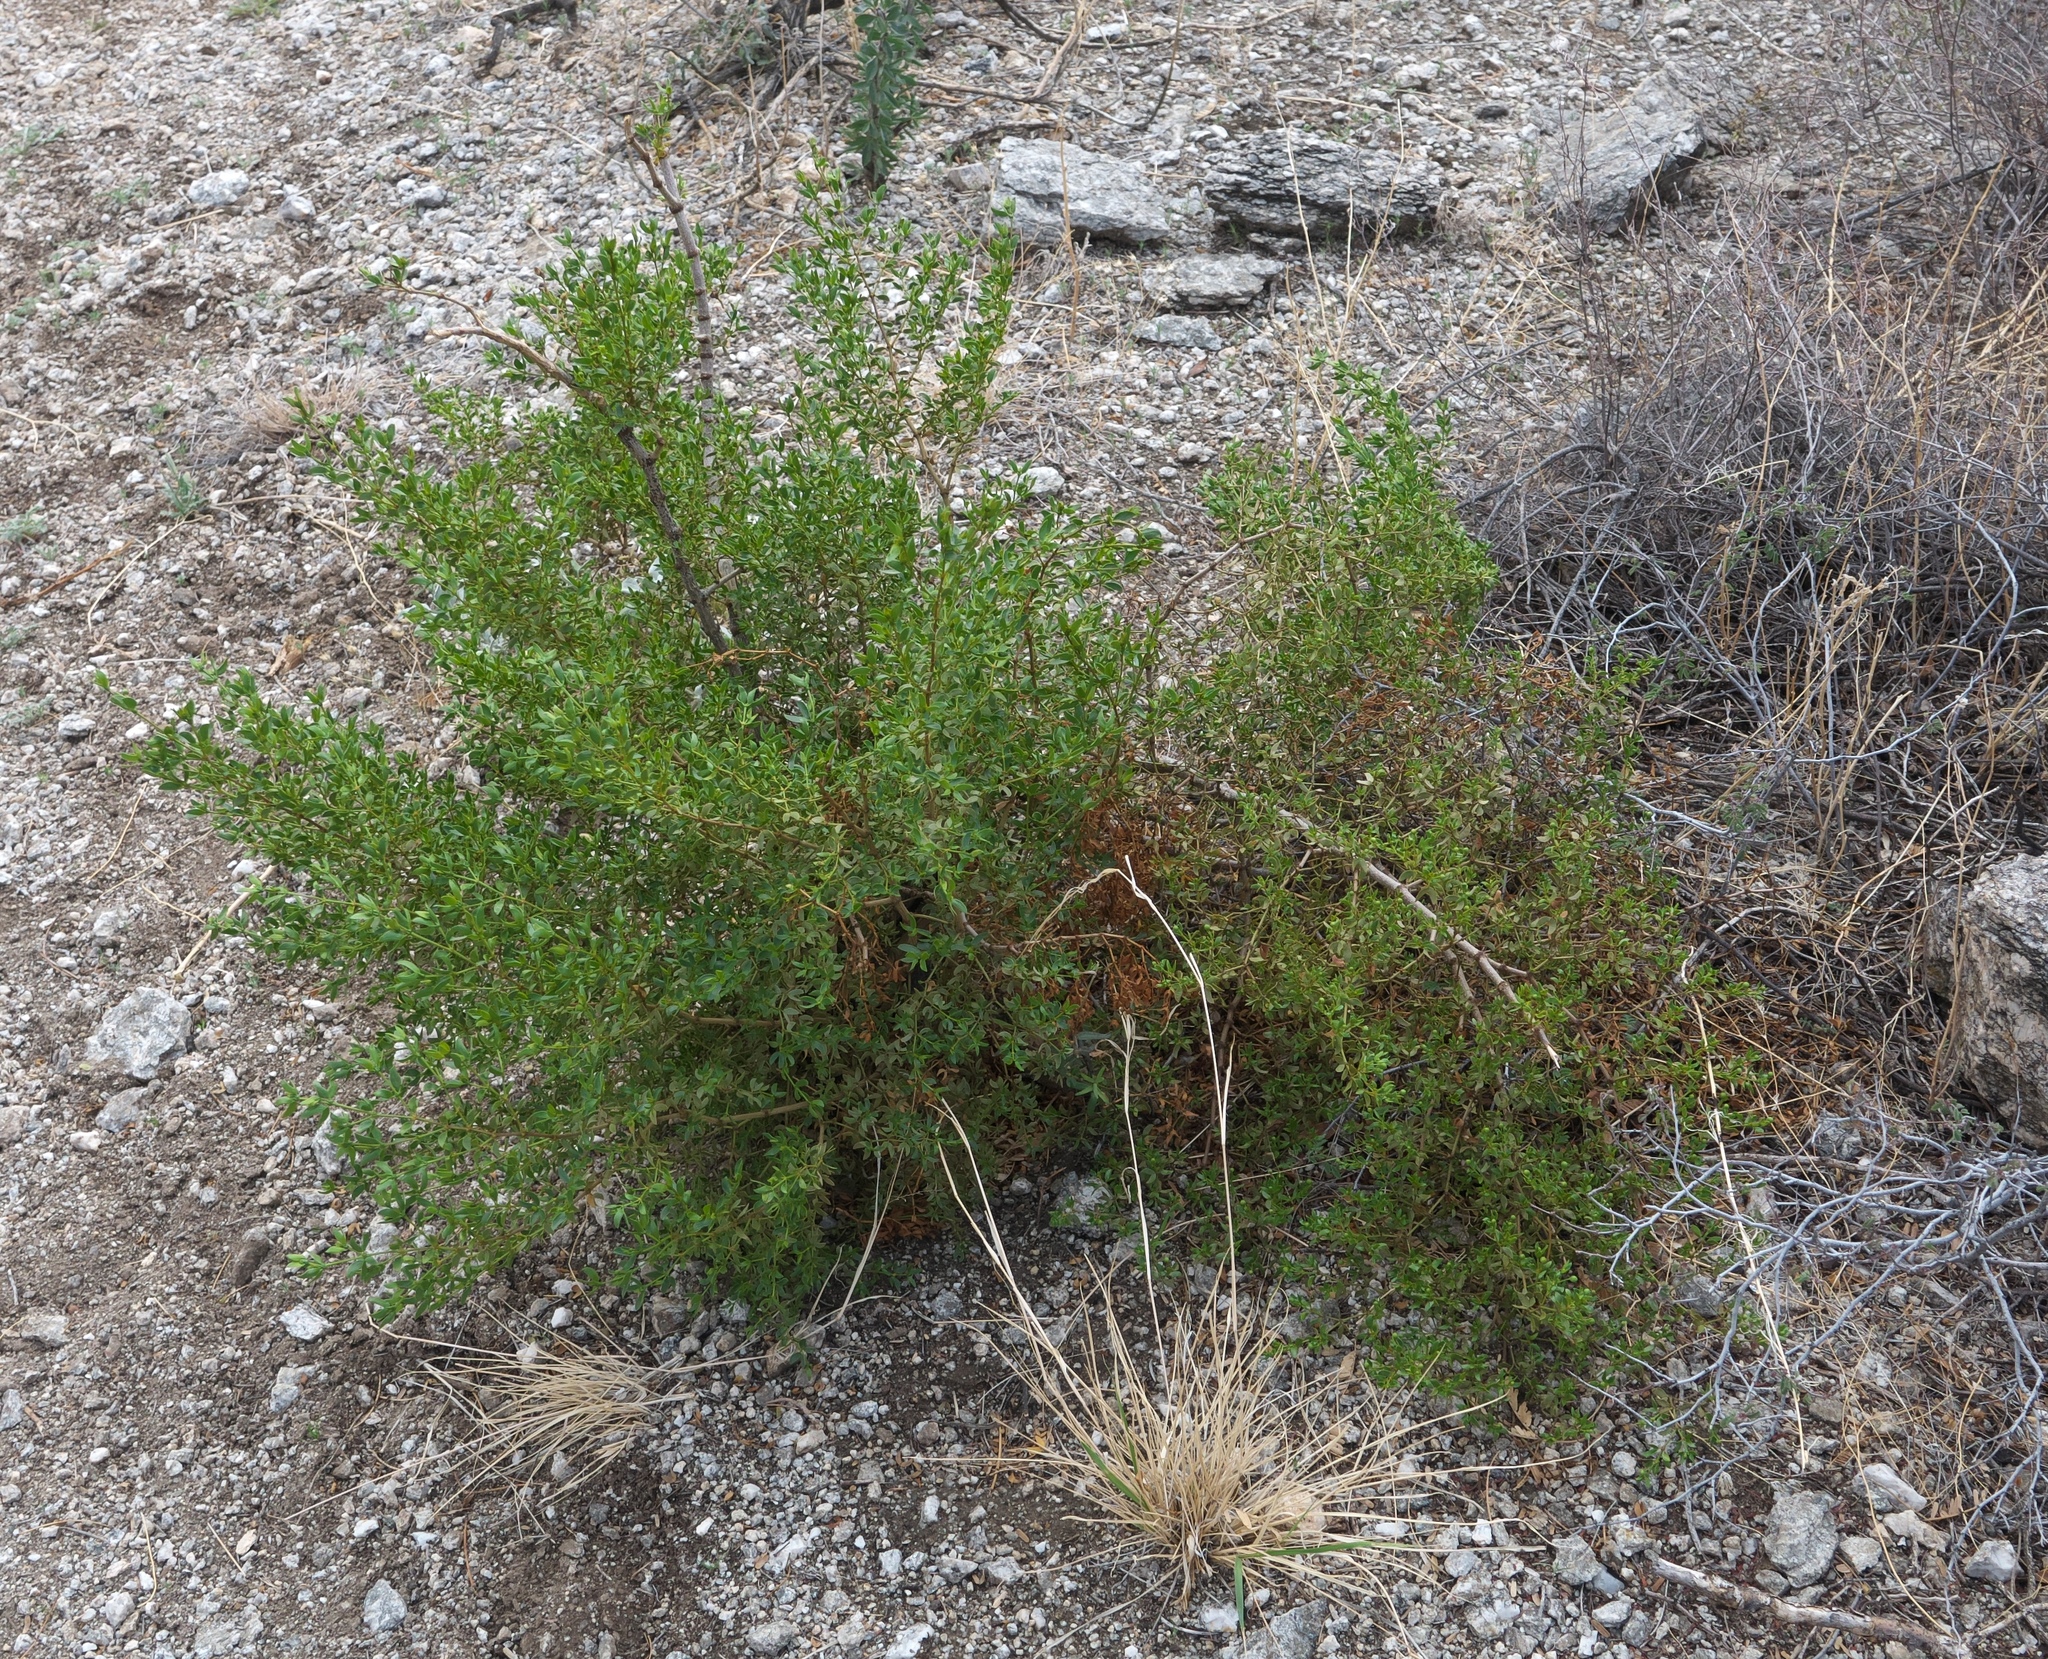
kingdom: Plantae
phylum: Tracheophyta
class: Magnoliopsida
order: Zygophyllales
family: Zygophyllaceae
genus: Larrea
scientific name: Larrea tridentata
